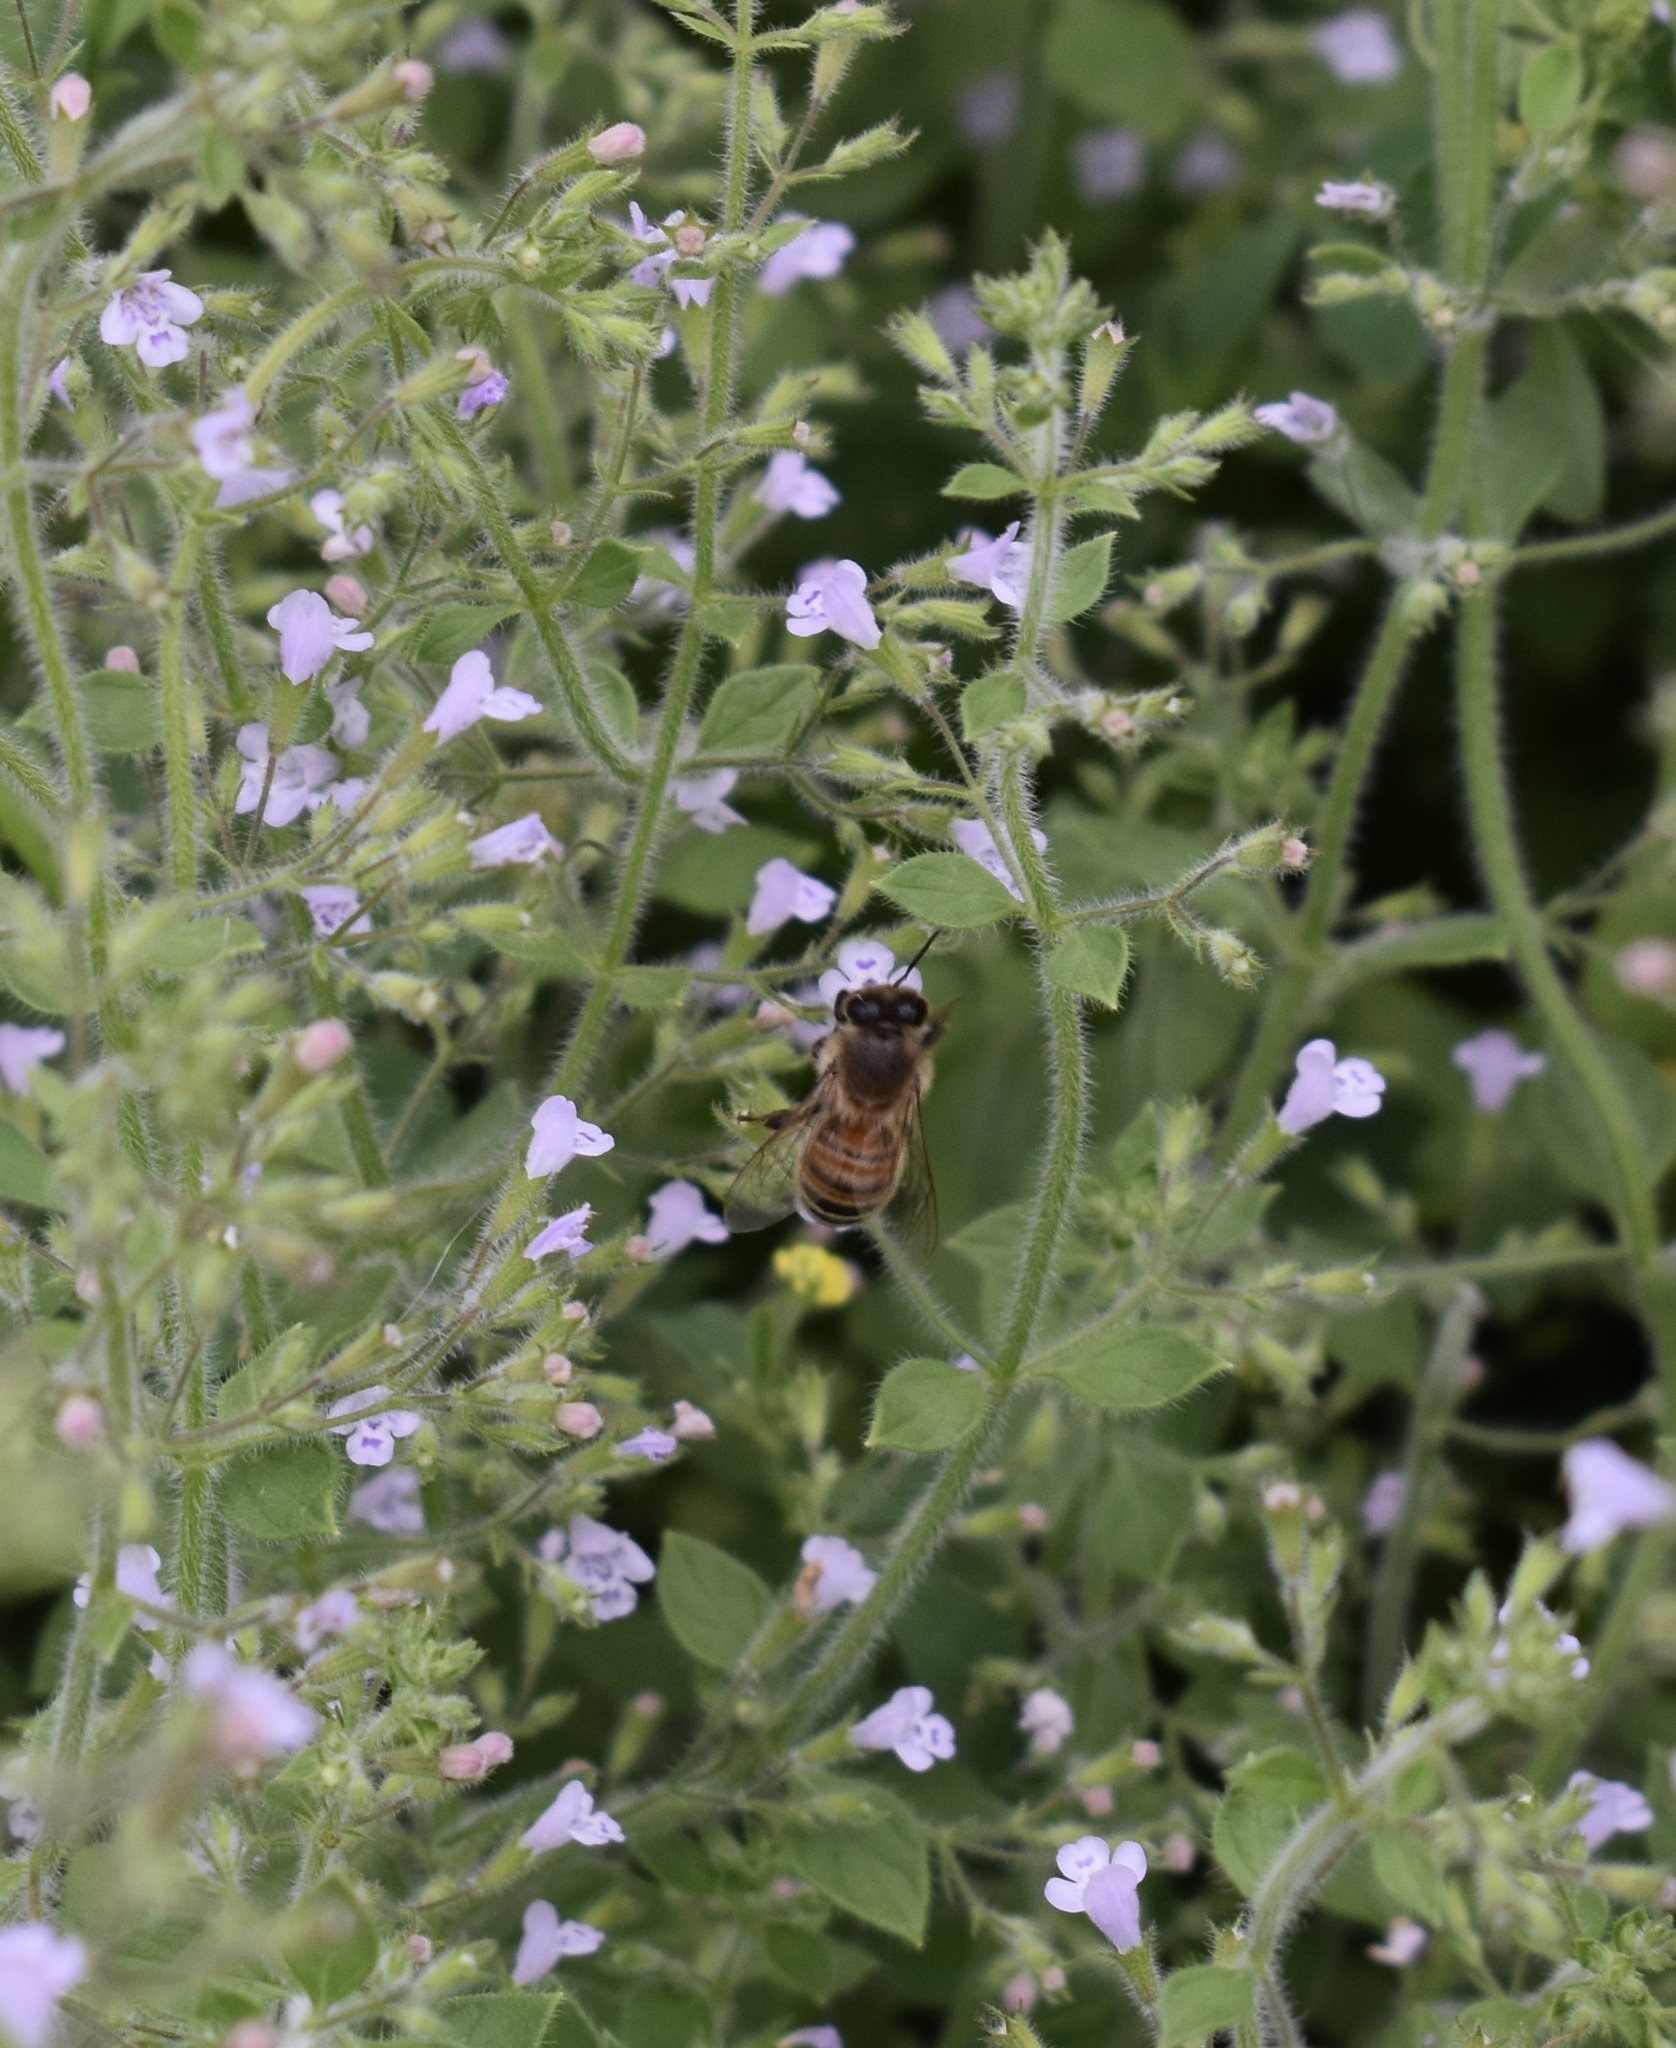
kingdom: Animalia
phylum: Arthropoda
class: Insecta
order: Hymenoptera
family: Apidae
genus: Apis
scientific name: Apis mellifera
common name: Honey bee
